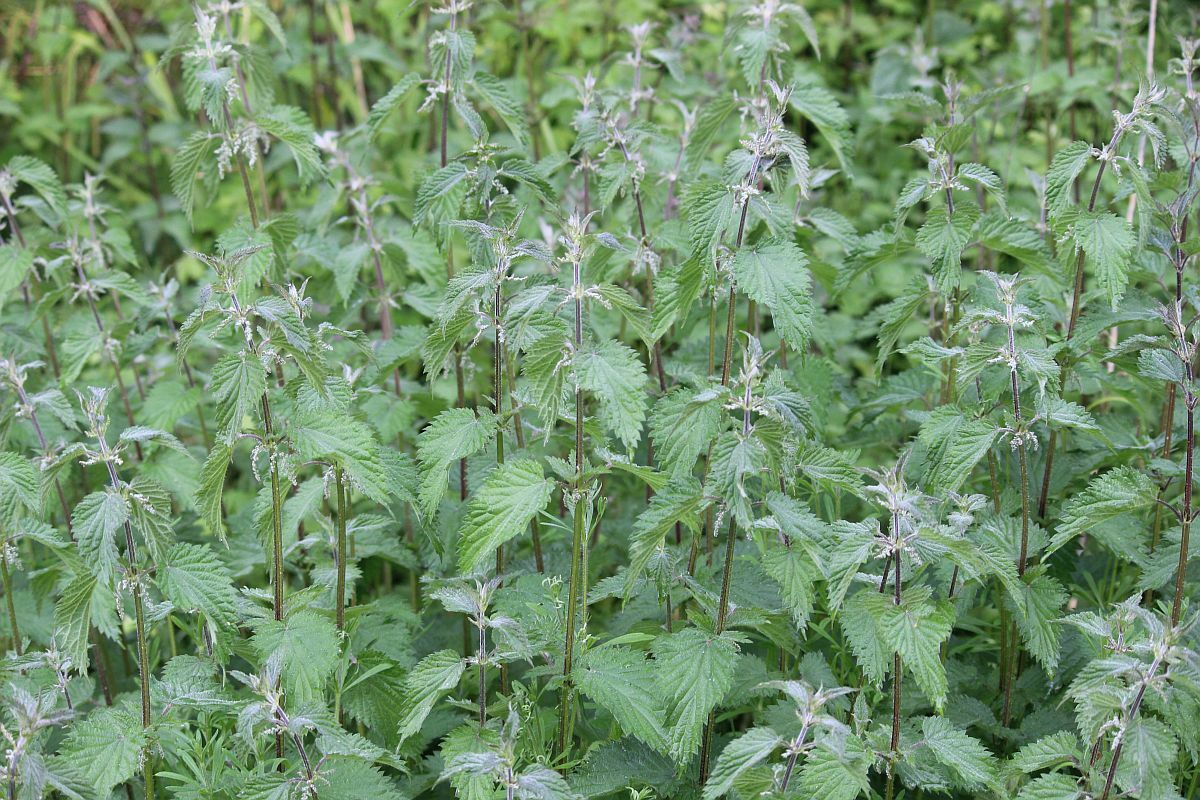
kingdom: Plantae
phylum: Tracheophyta
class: Magnoliopsida
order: Rosales
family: Urticaceae
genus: Urtica
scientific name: Urtica dioica
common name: Common nettle
